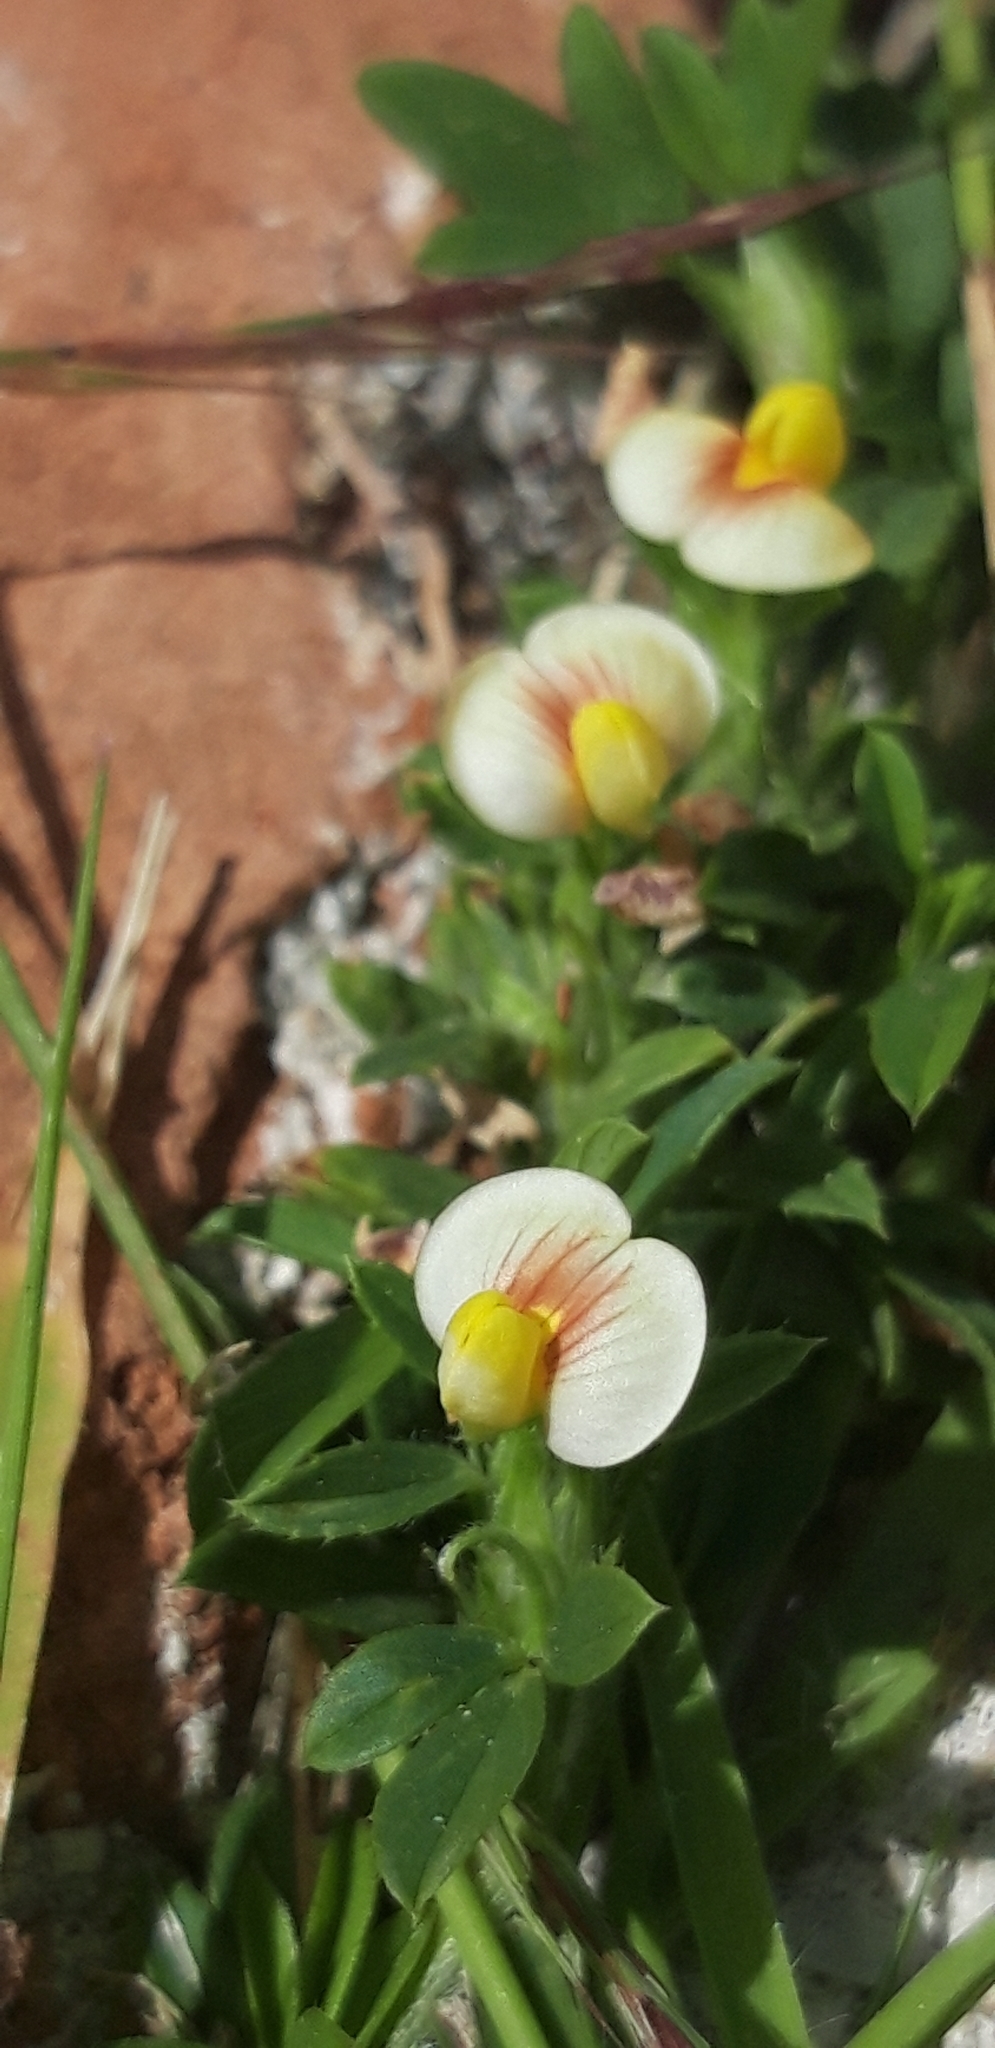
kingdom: Plantae
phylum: Tracheophyta
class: Magnoliopsida
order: Fabales
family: Fabaceae
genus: Stylosanthes
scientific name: Stylosanthes hamata
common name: Cheesytoes
